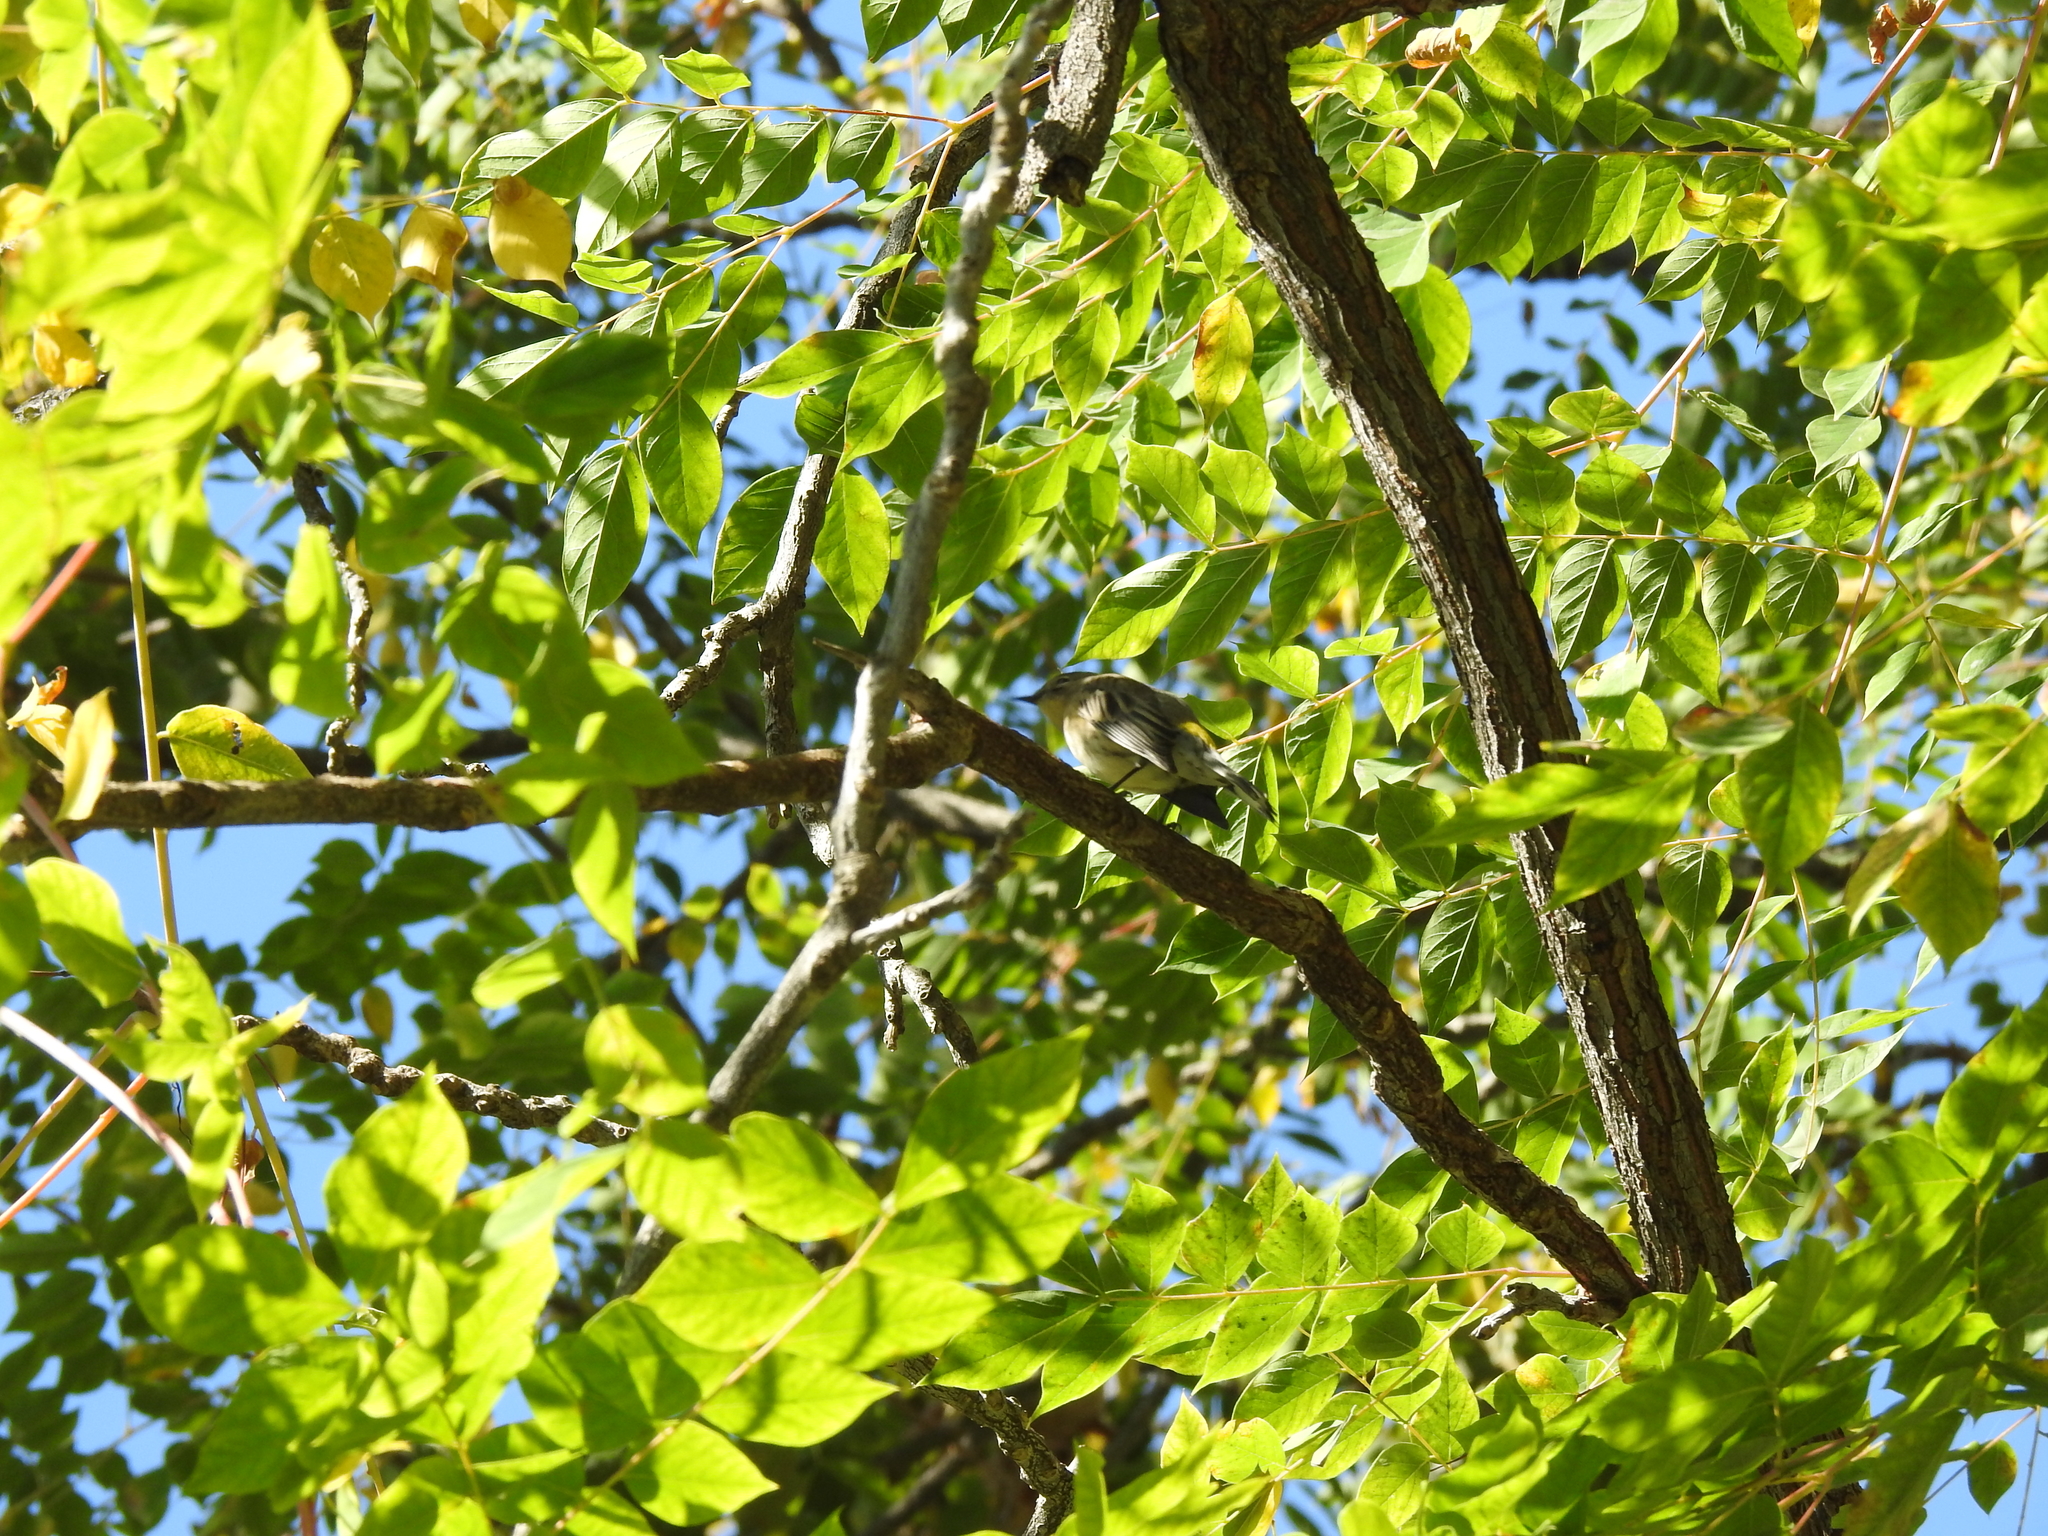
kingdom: Animalia
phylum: Chordata
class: Aves
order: Passeriformes
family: Parulidae
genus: Setophaga
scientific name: Setophaga auduboni
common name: Audubon's warbler
